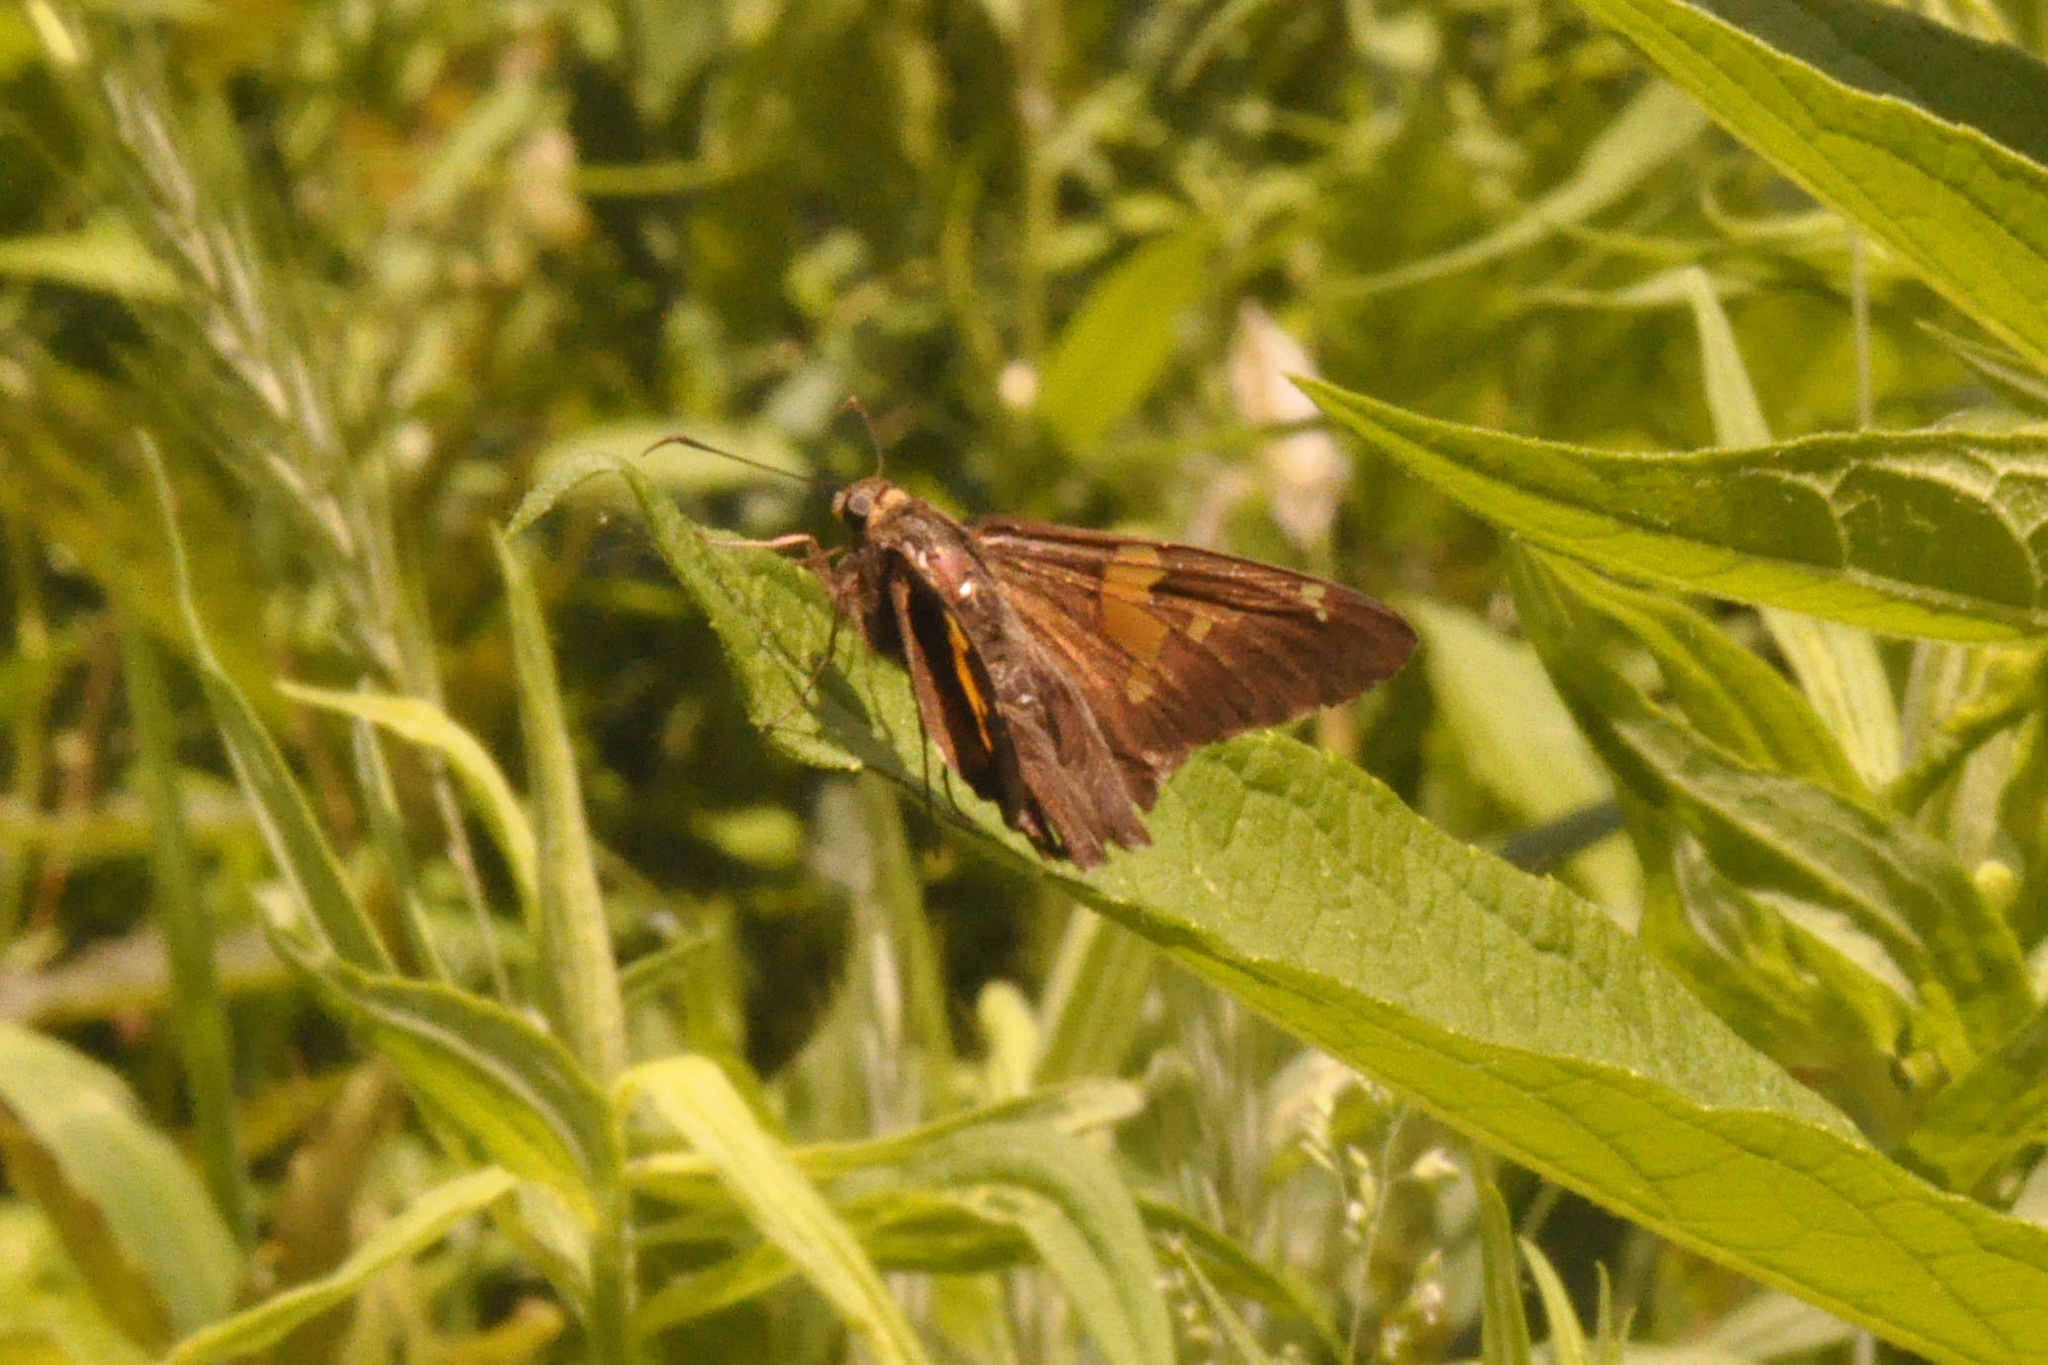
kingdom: Animalia
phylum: Arthropoda
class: Insecta
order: Lepidoptera
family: Hesperiidae
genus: Epargyreus
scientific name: Epargyreus clarus
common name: Silver-spotted skipper
